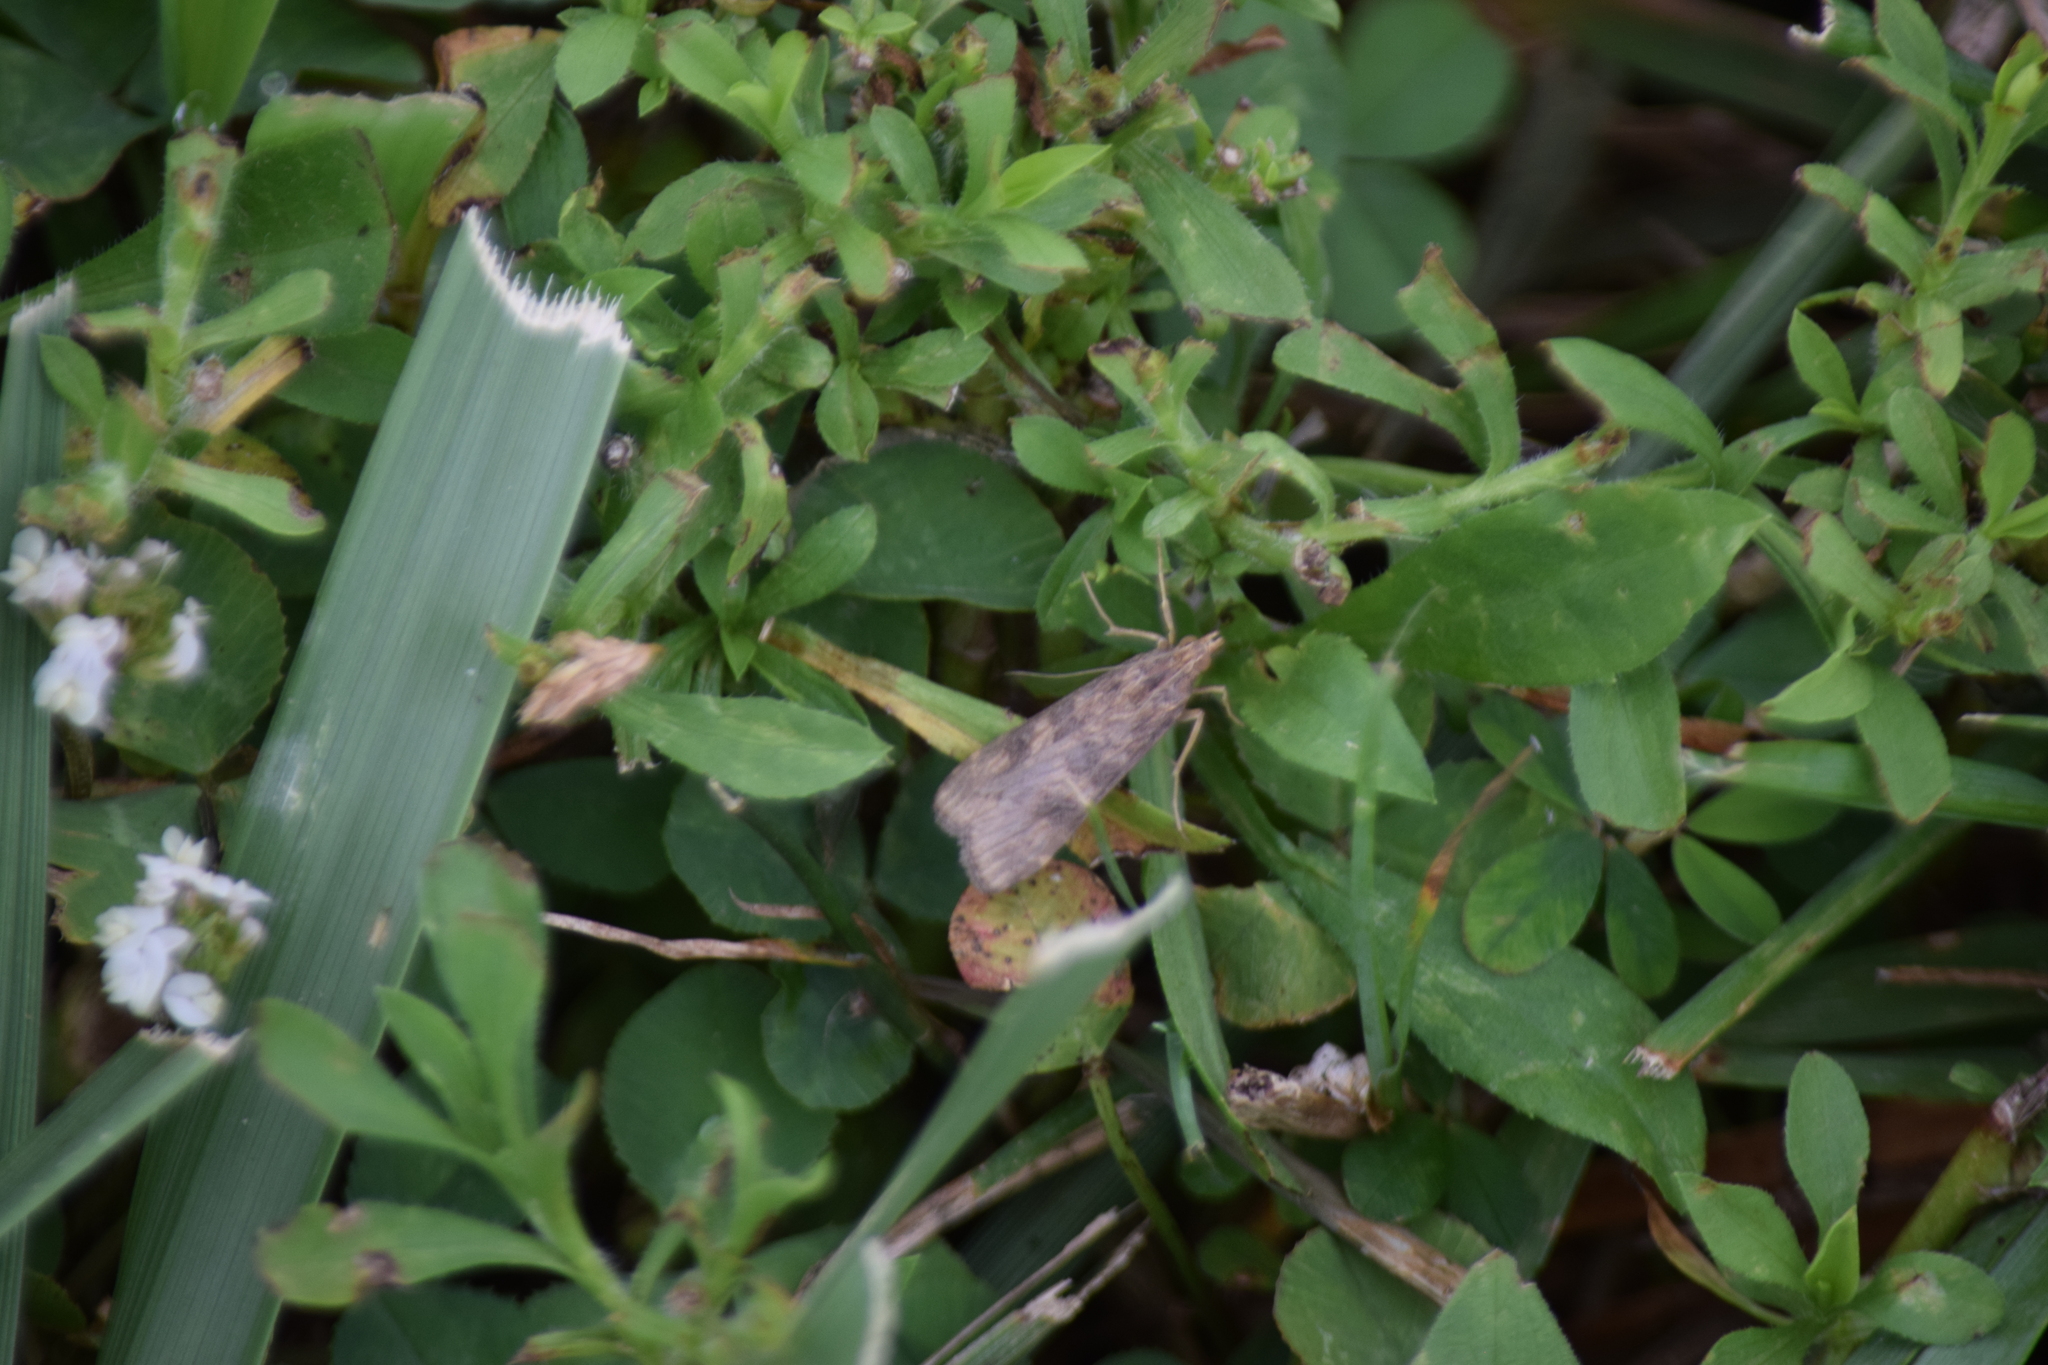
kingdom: Animalia
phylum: Arthropoda
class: Insecta
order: Lepidoptera
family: Crambidae
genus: Nomophila
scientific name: Nomophila nearctica
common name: American rush veneer
